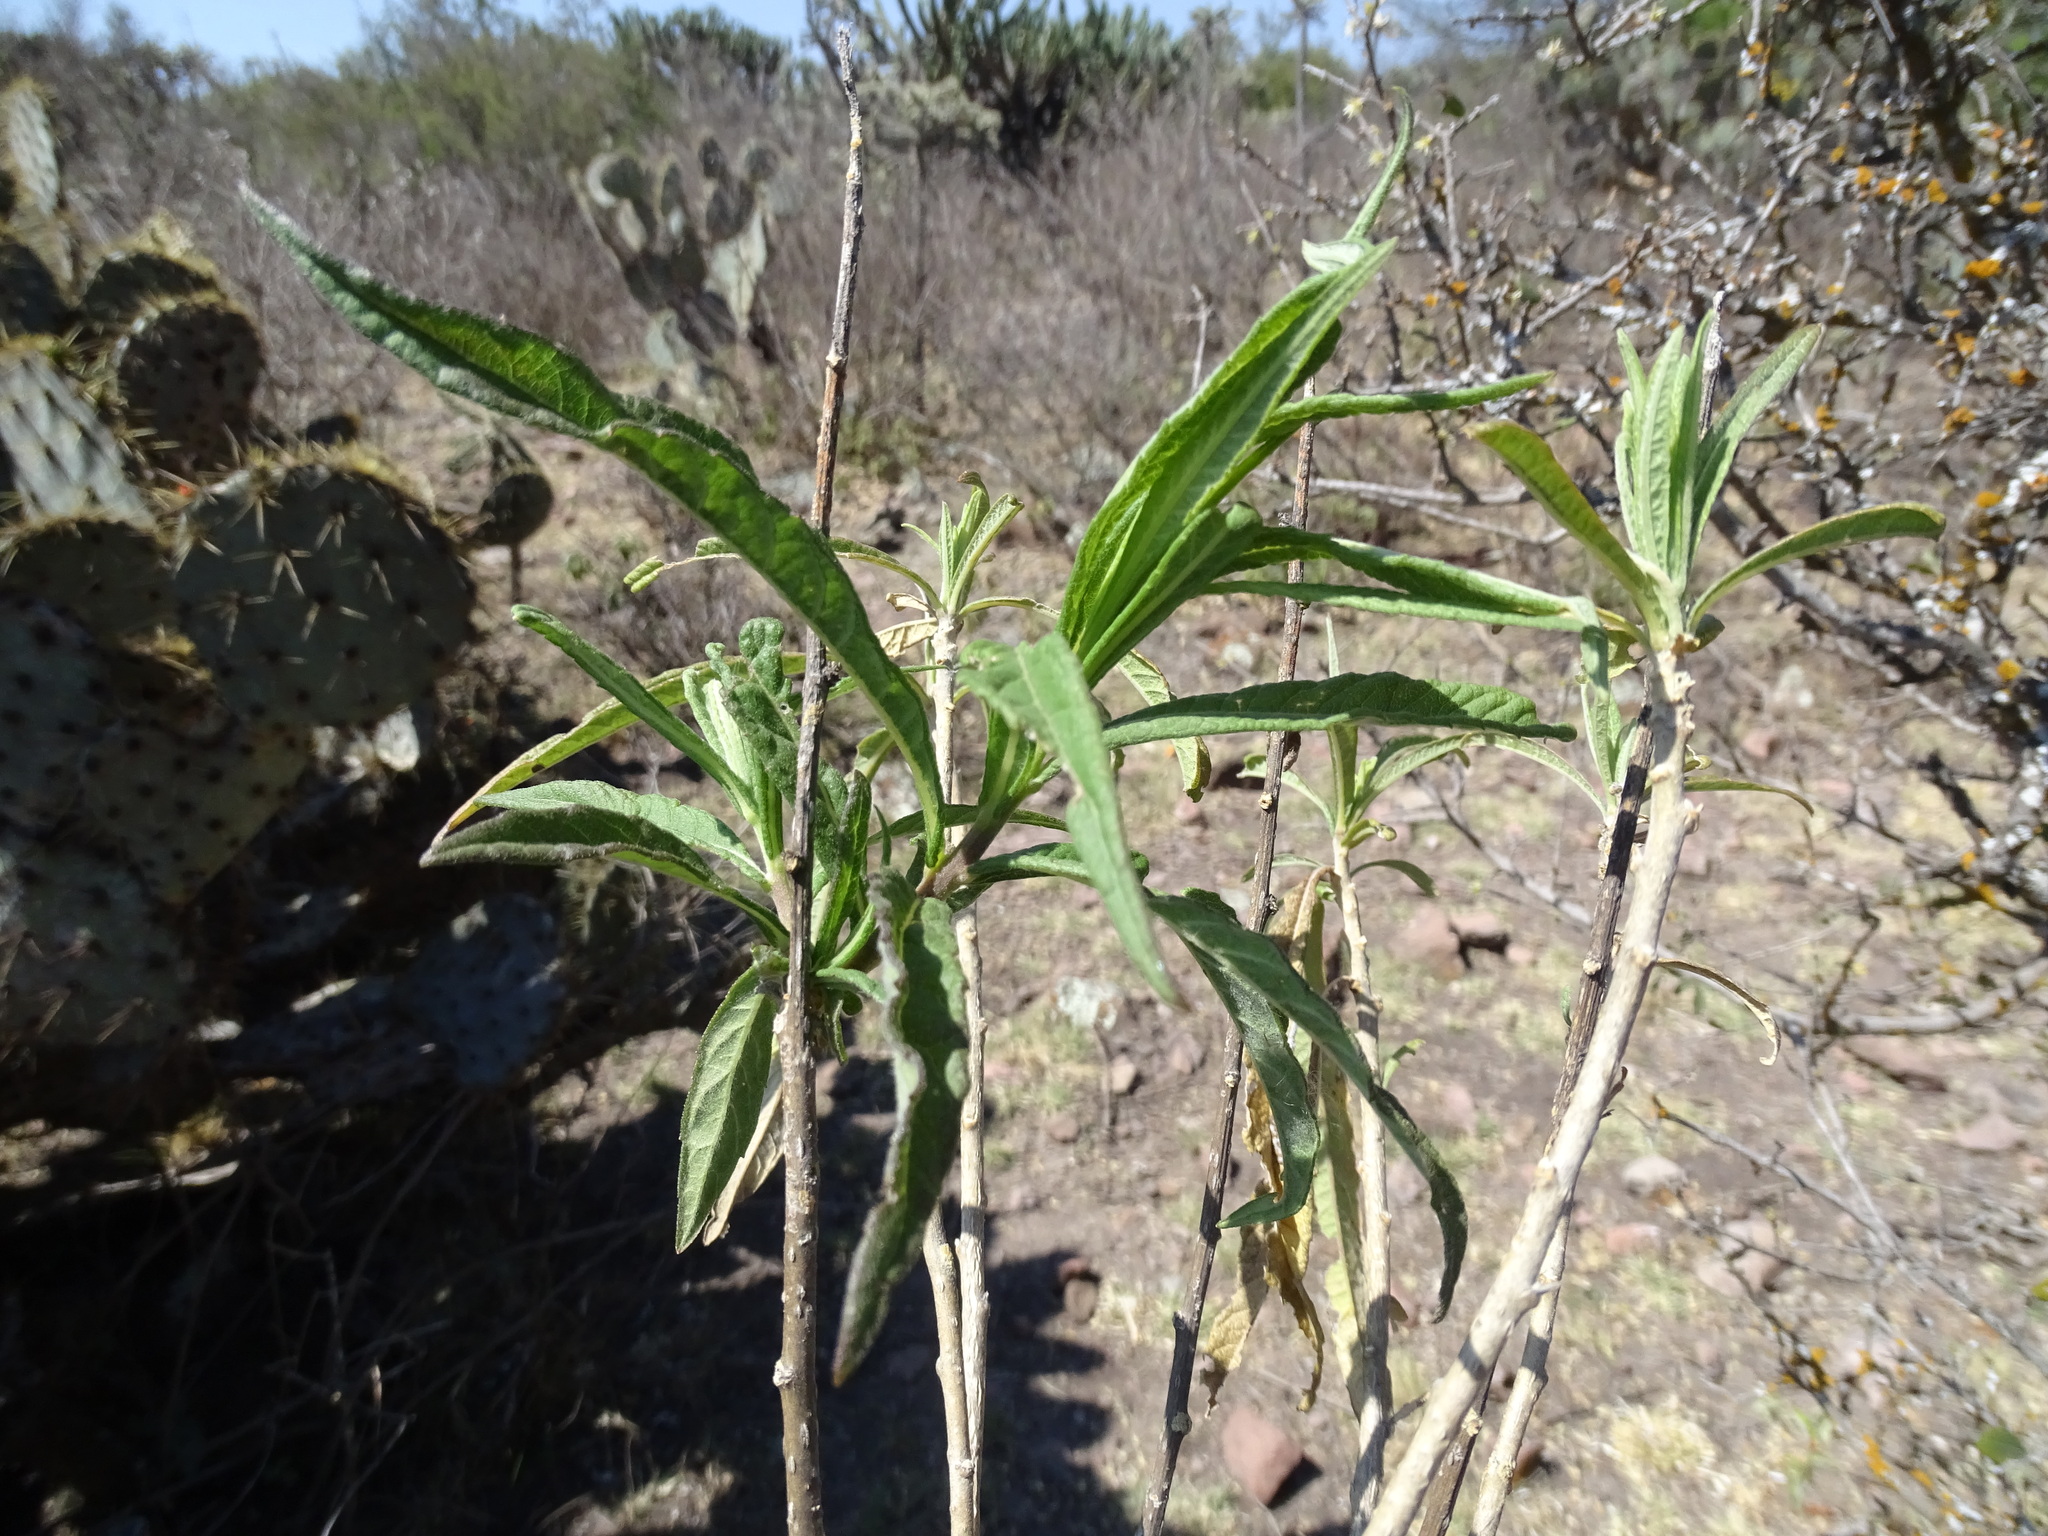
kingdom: Plantae
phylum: Tracheophyta
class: Magnoliopsida
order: Asterales
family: Asteraceae
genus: Verbesina
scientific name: Verbesina virgata
